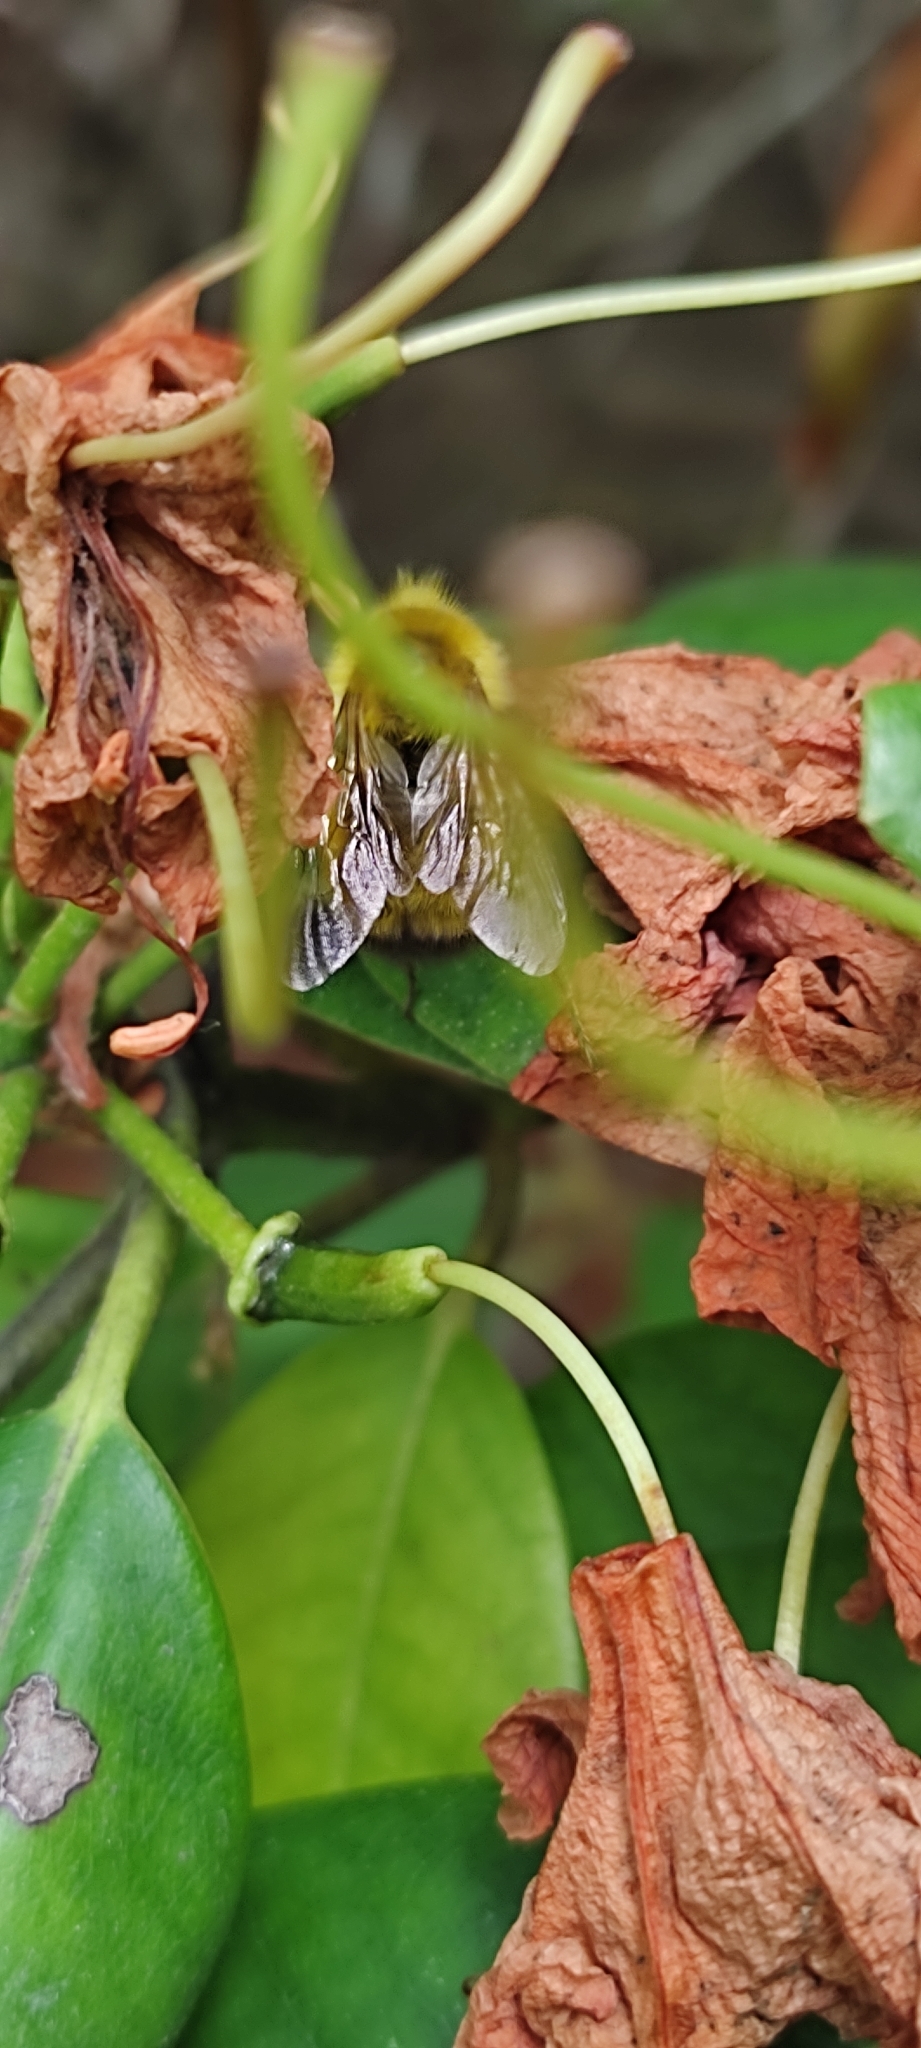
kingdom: Animalia
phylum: Arthropoda
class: Insecta
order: Hymenoptera
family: Apidae
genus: Bombus
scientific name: Bombus perplexus
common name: Confusing bumble bee
